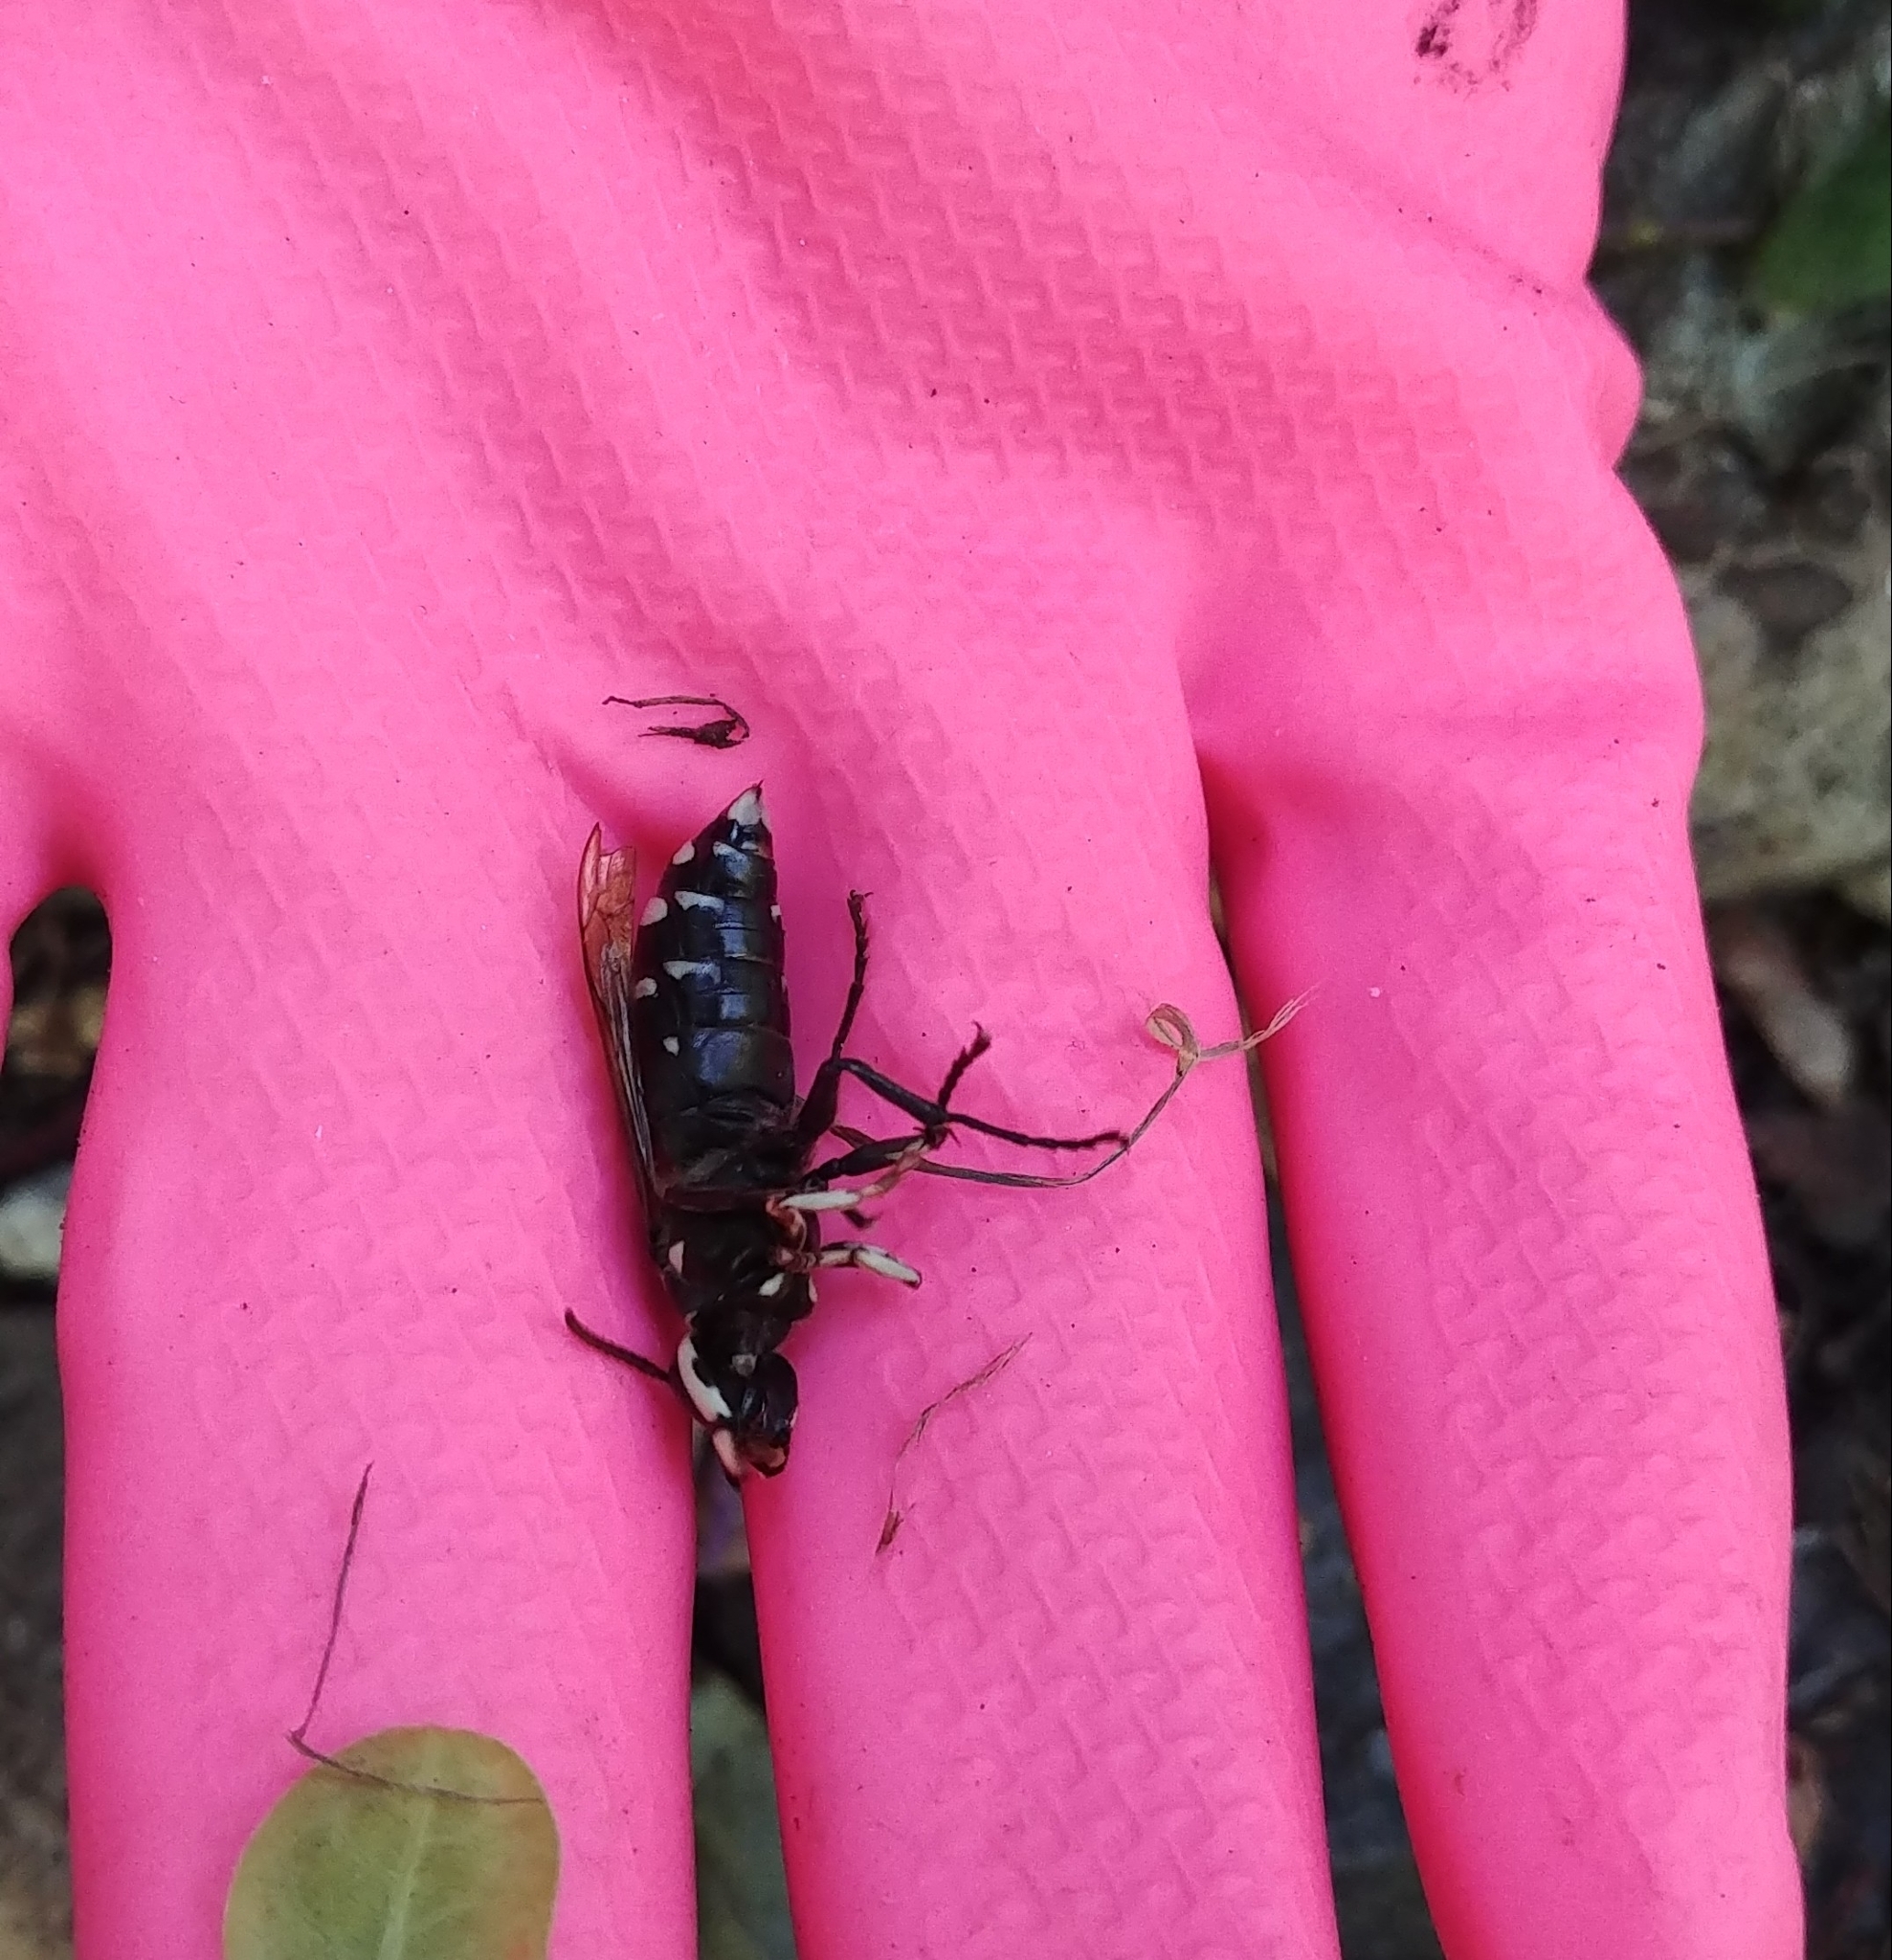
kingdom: Animalia
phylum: Arthropoda
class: Insecta
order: Hymenoptera
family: Vespidae
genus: Dolichovespula
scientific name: Dolichovespula maculata
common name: Bald-faced hornet
